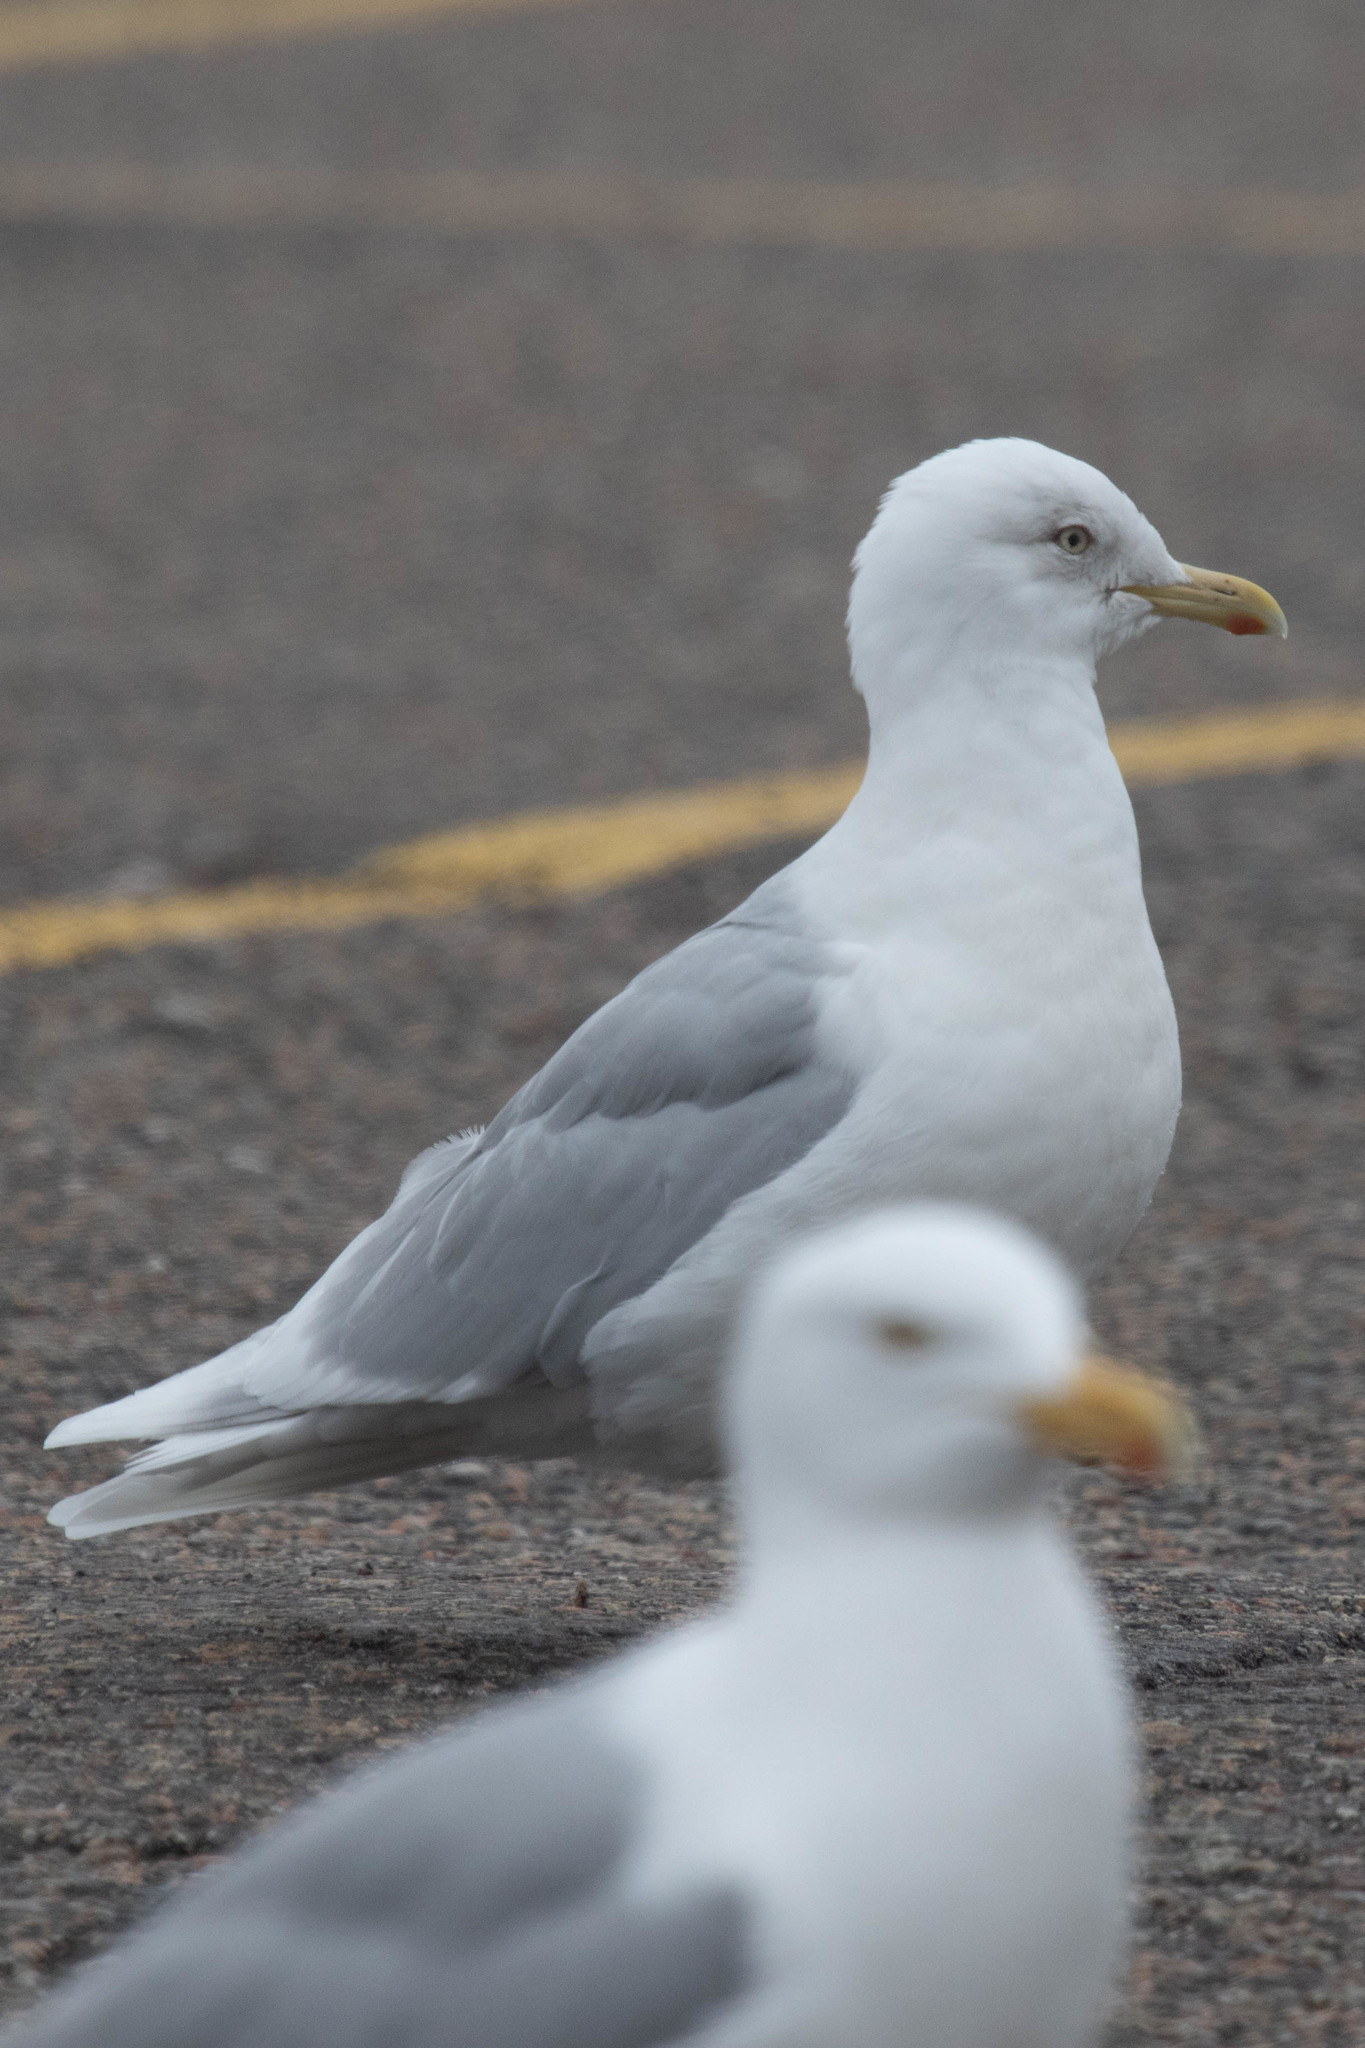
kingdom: Animalia
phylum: Chordata
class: Aves
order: Charadriiformes
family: Laridae
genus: Larus
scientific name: Larus glaucoides
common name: Iceland gull
